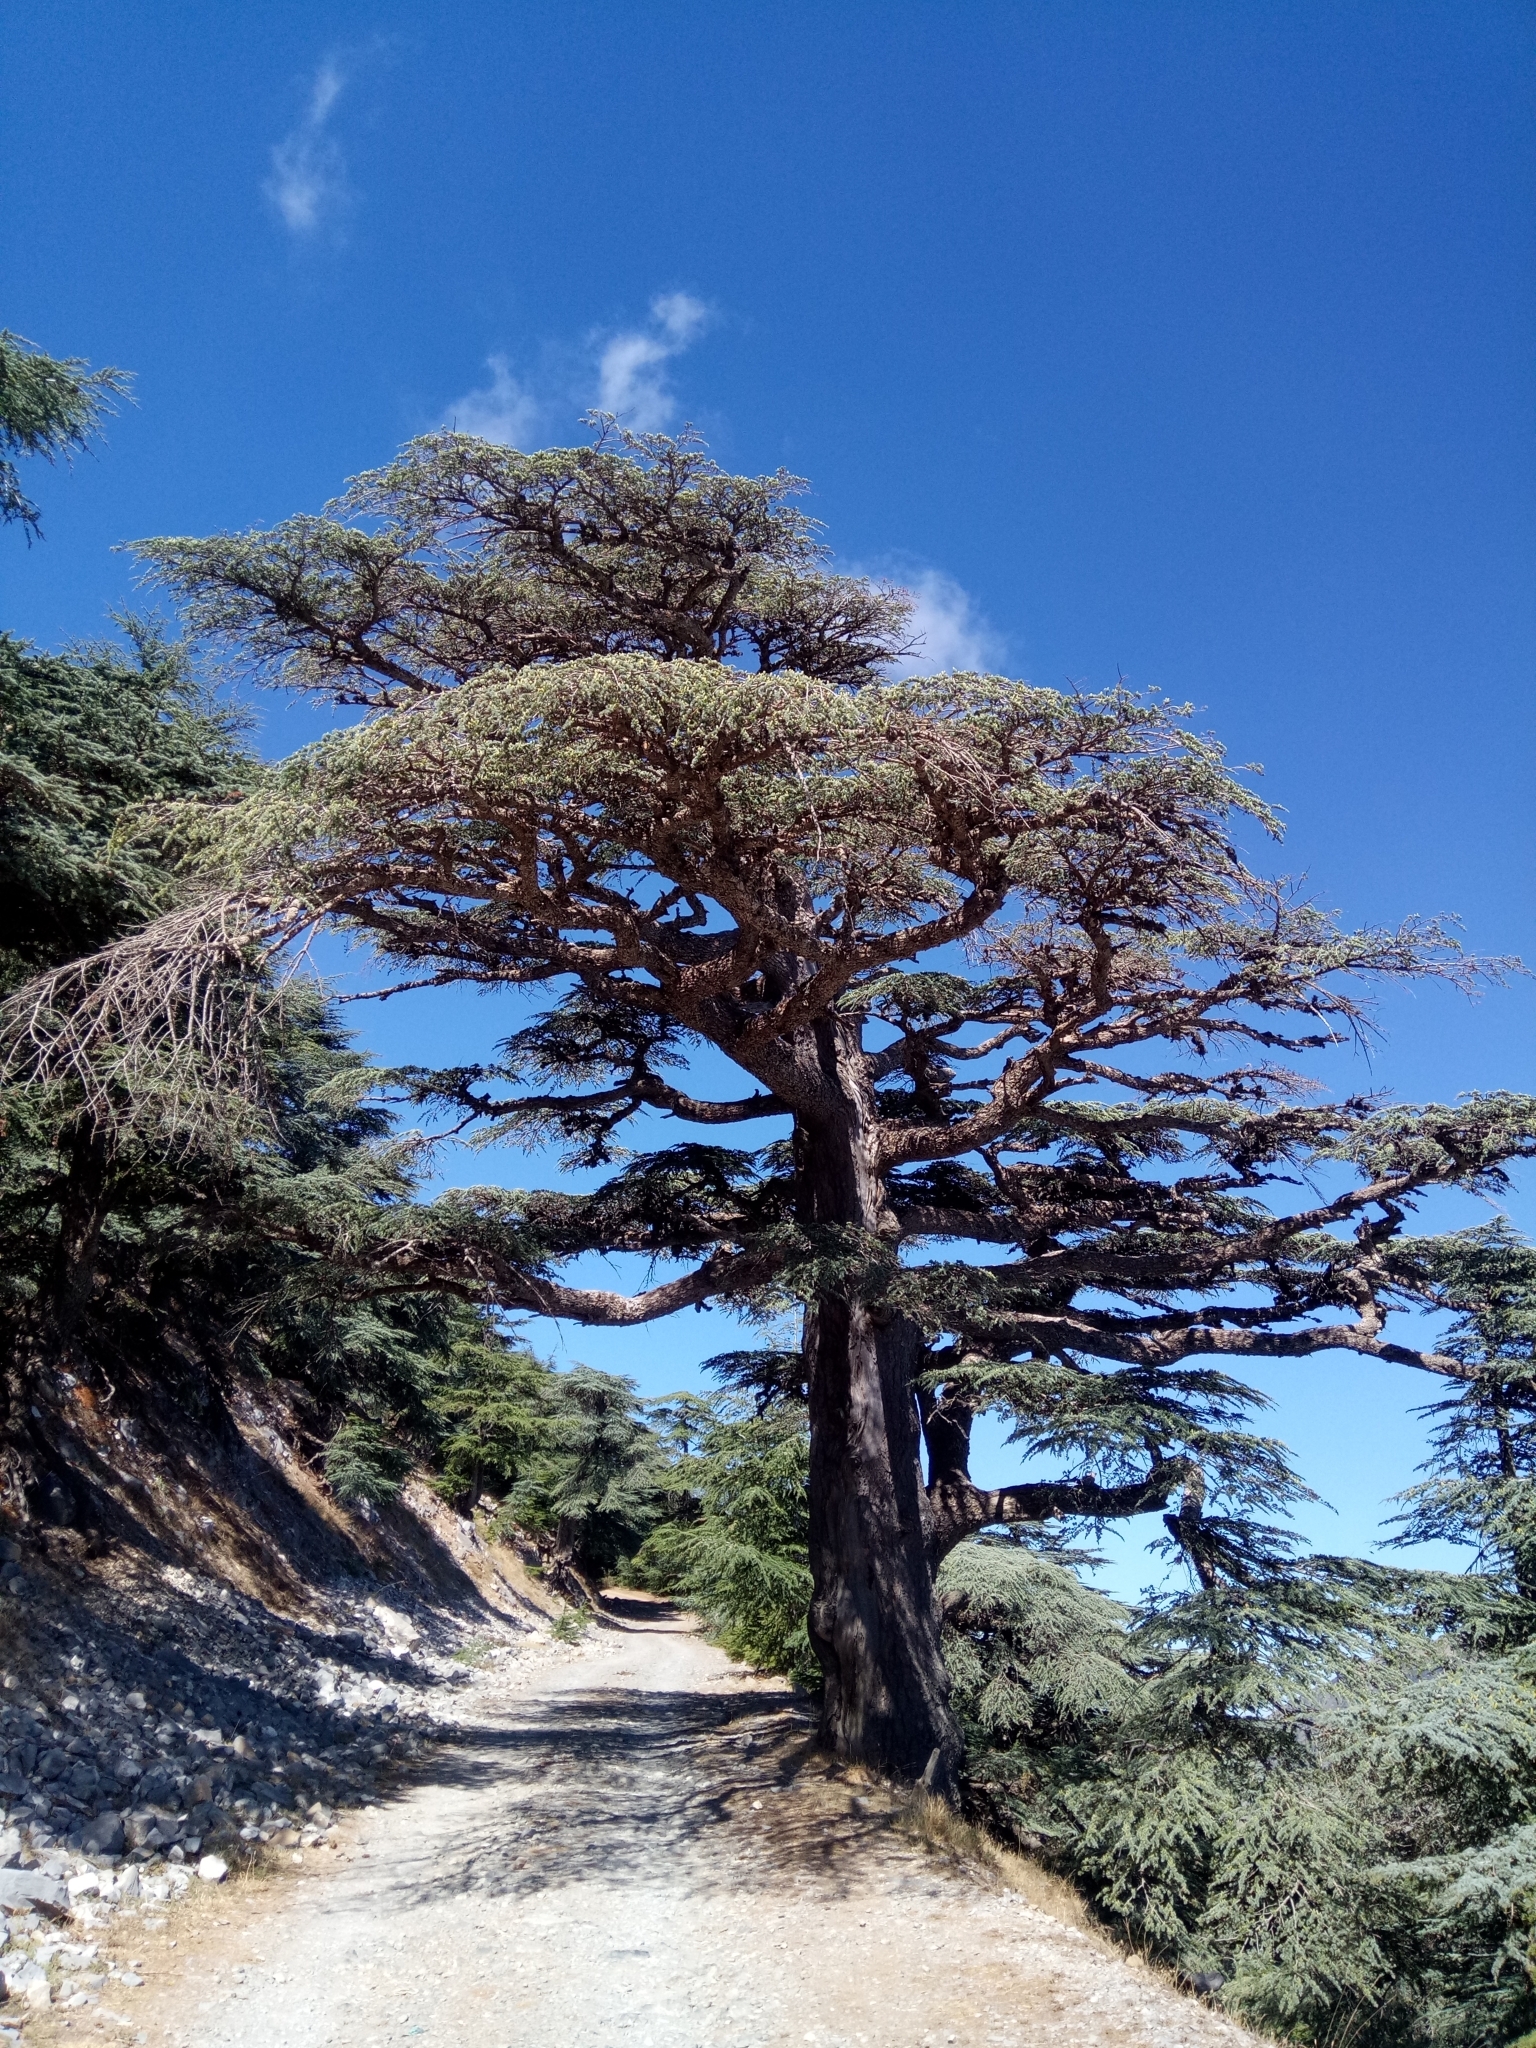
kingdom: Plantae
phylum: Tracheophyta
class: Pinopsida
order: Pinales
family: Pinaceae
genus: Cedrus
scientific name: Cedrus atlantica
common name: Atlas cedar
